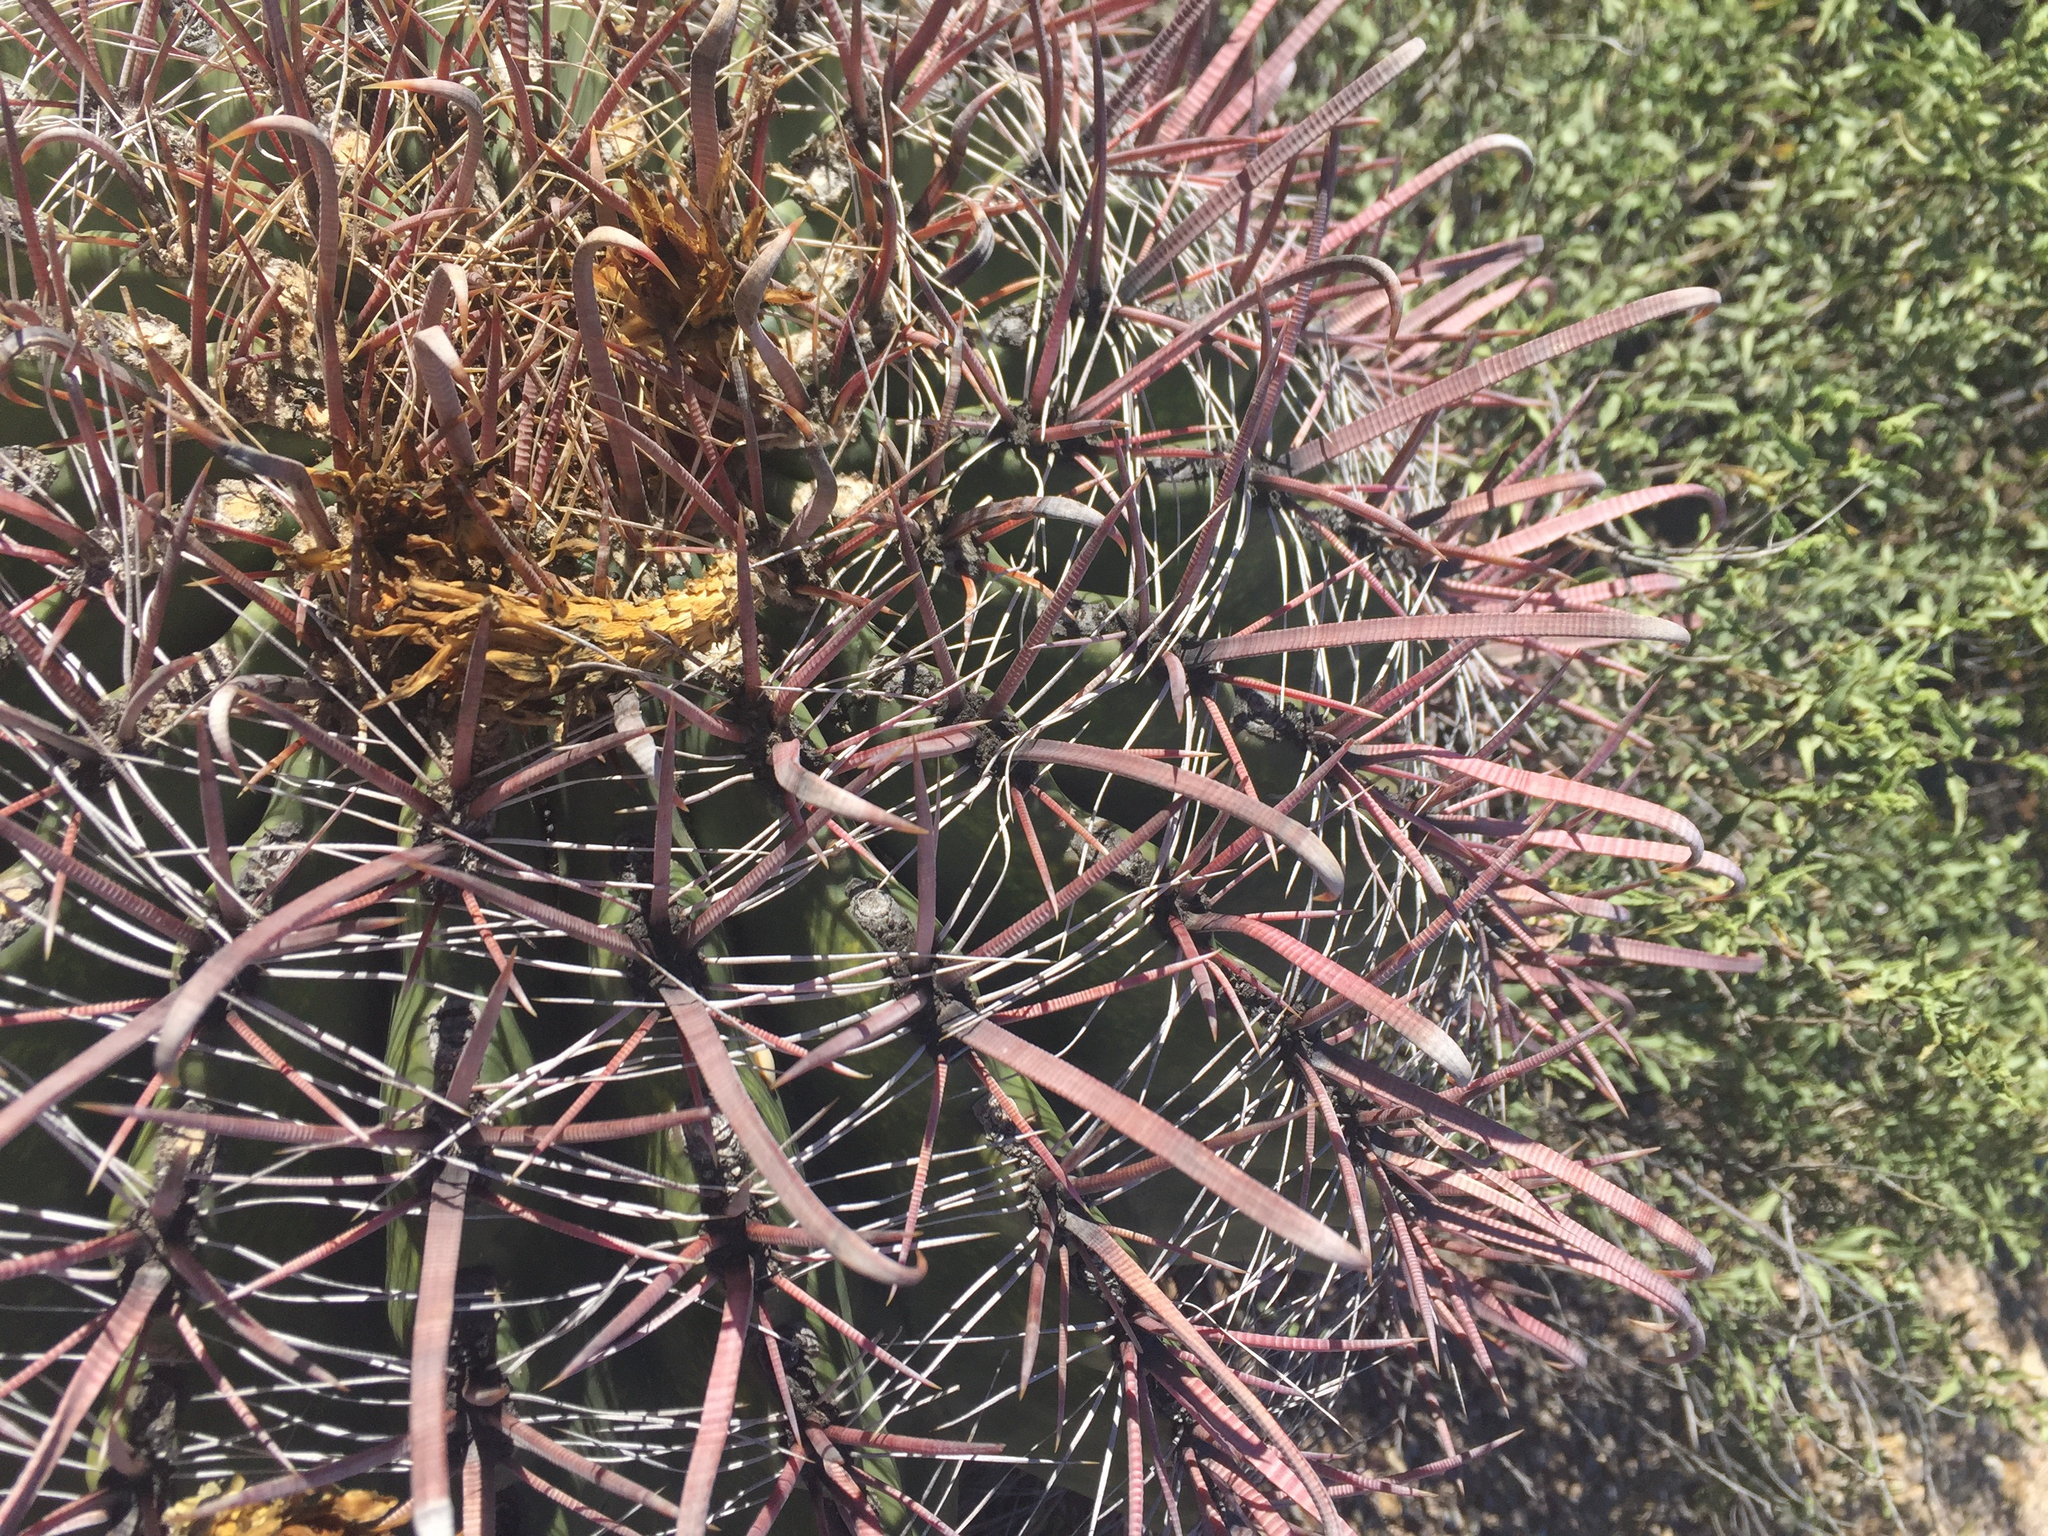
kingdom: Plantae
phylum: Tracheophyta
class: Magnoliopsida
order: Caryophyllales
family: Cactaceae
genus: Ferocactus
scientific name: Ferocactus wislizeni
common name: Candy barrel cactus
